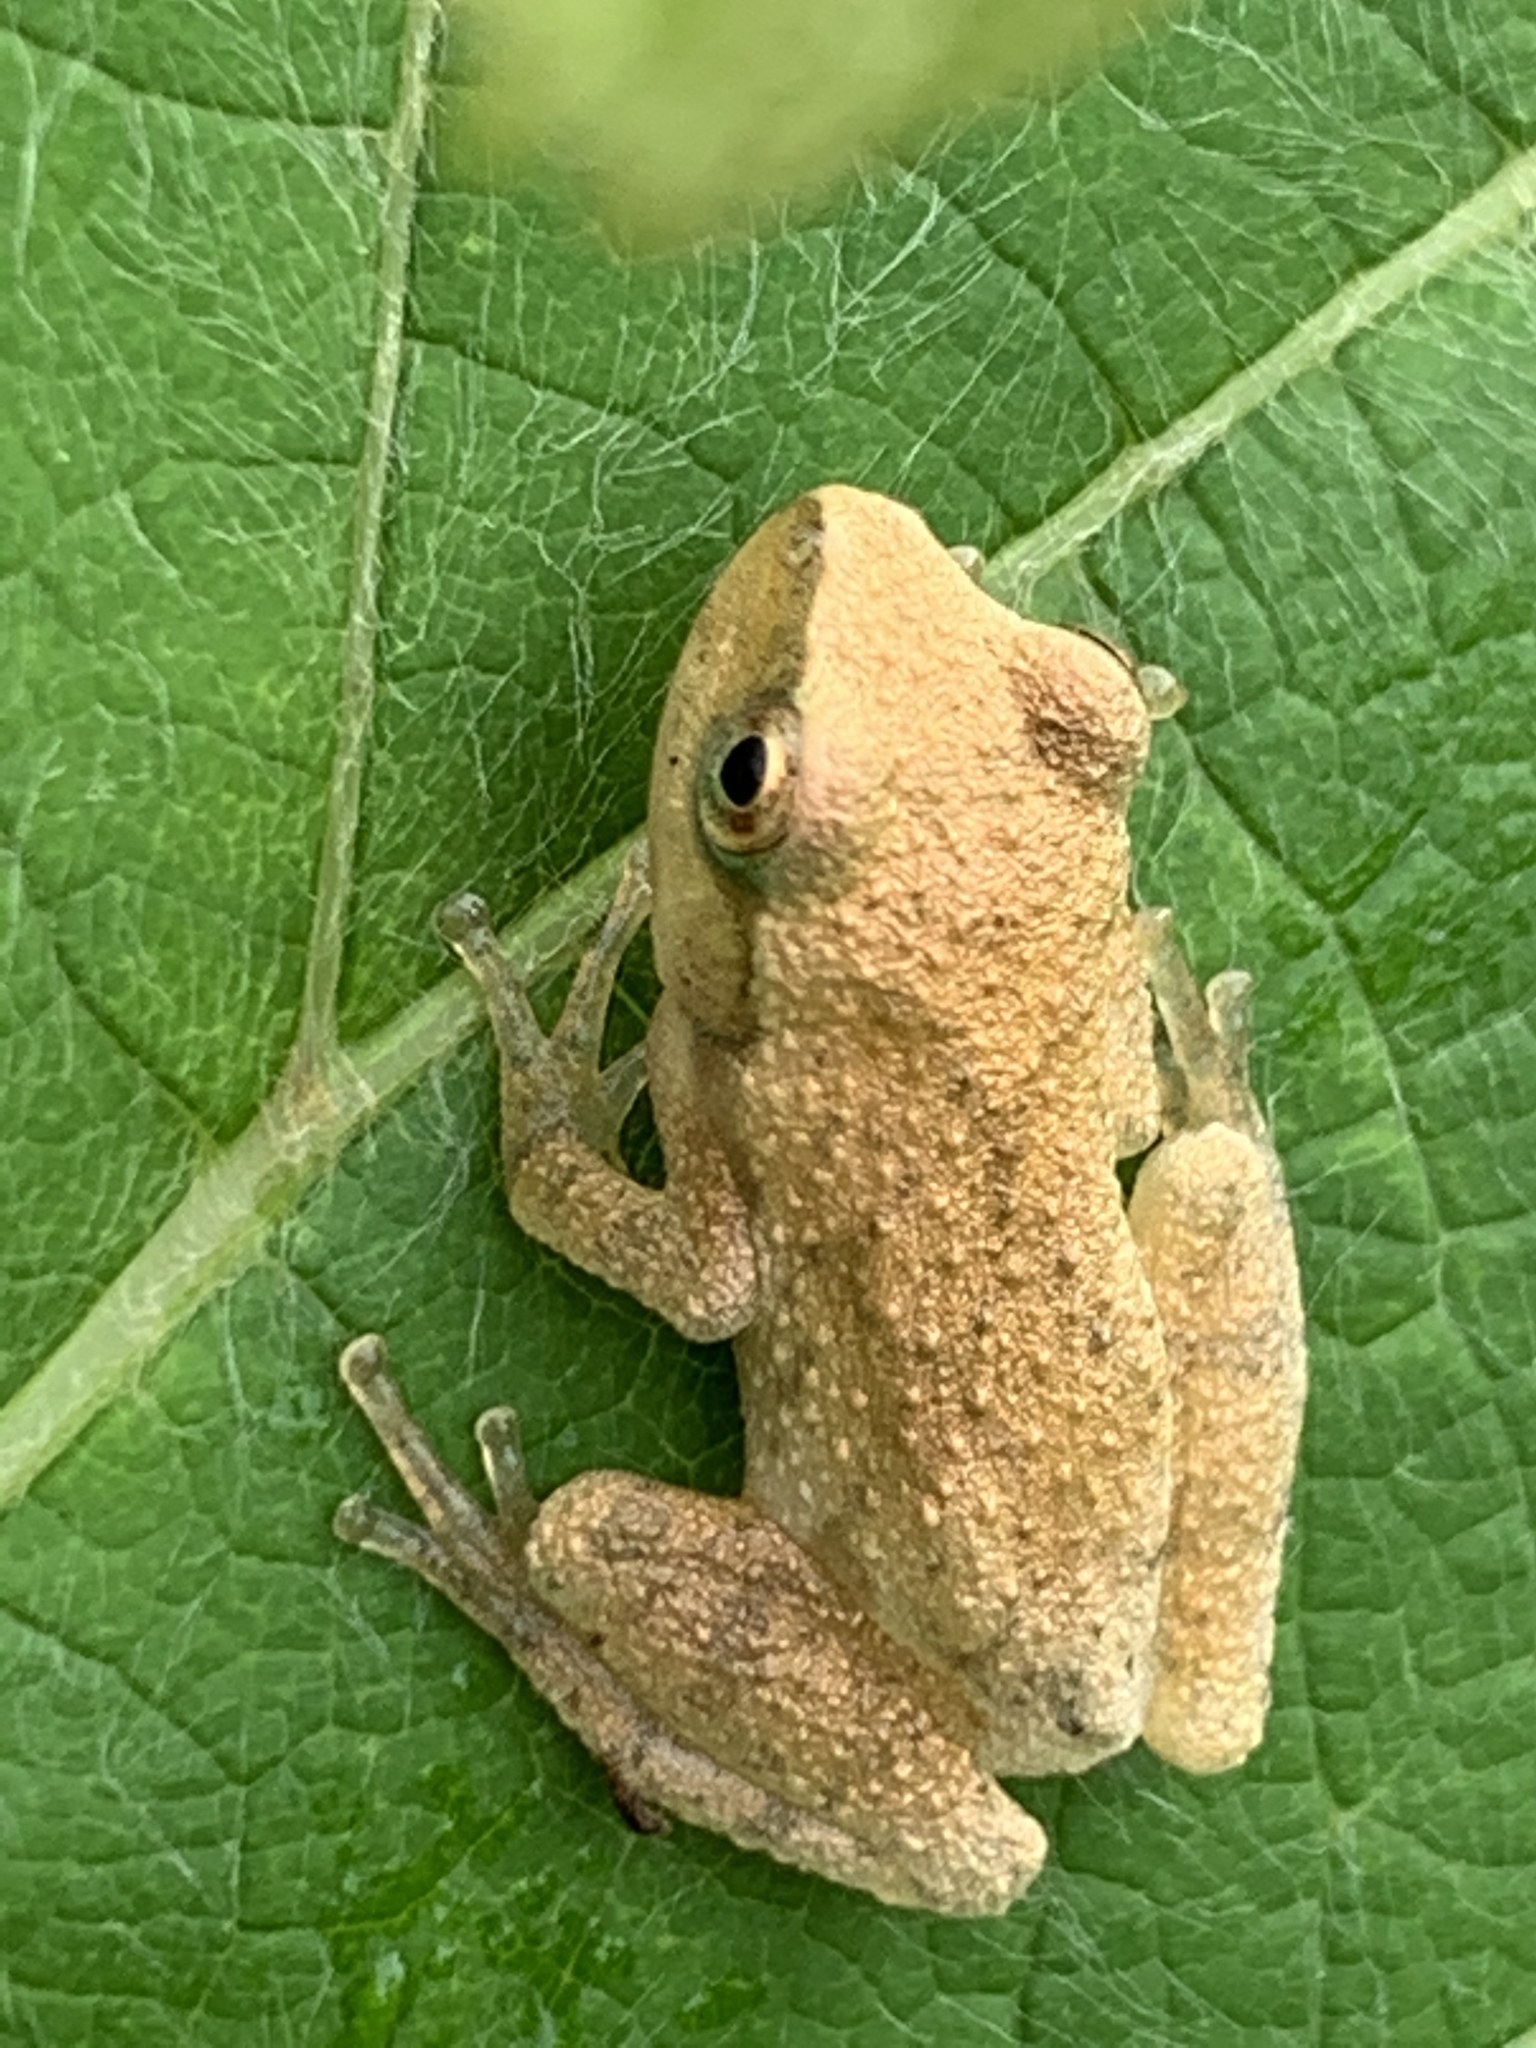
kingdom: Animalia
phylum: Chordata
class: Amphibia
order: Anura
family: Hylidae
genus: Pseudacris
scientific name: Pseudacris crucifer
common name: Spring peeper
